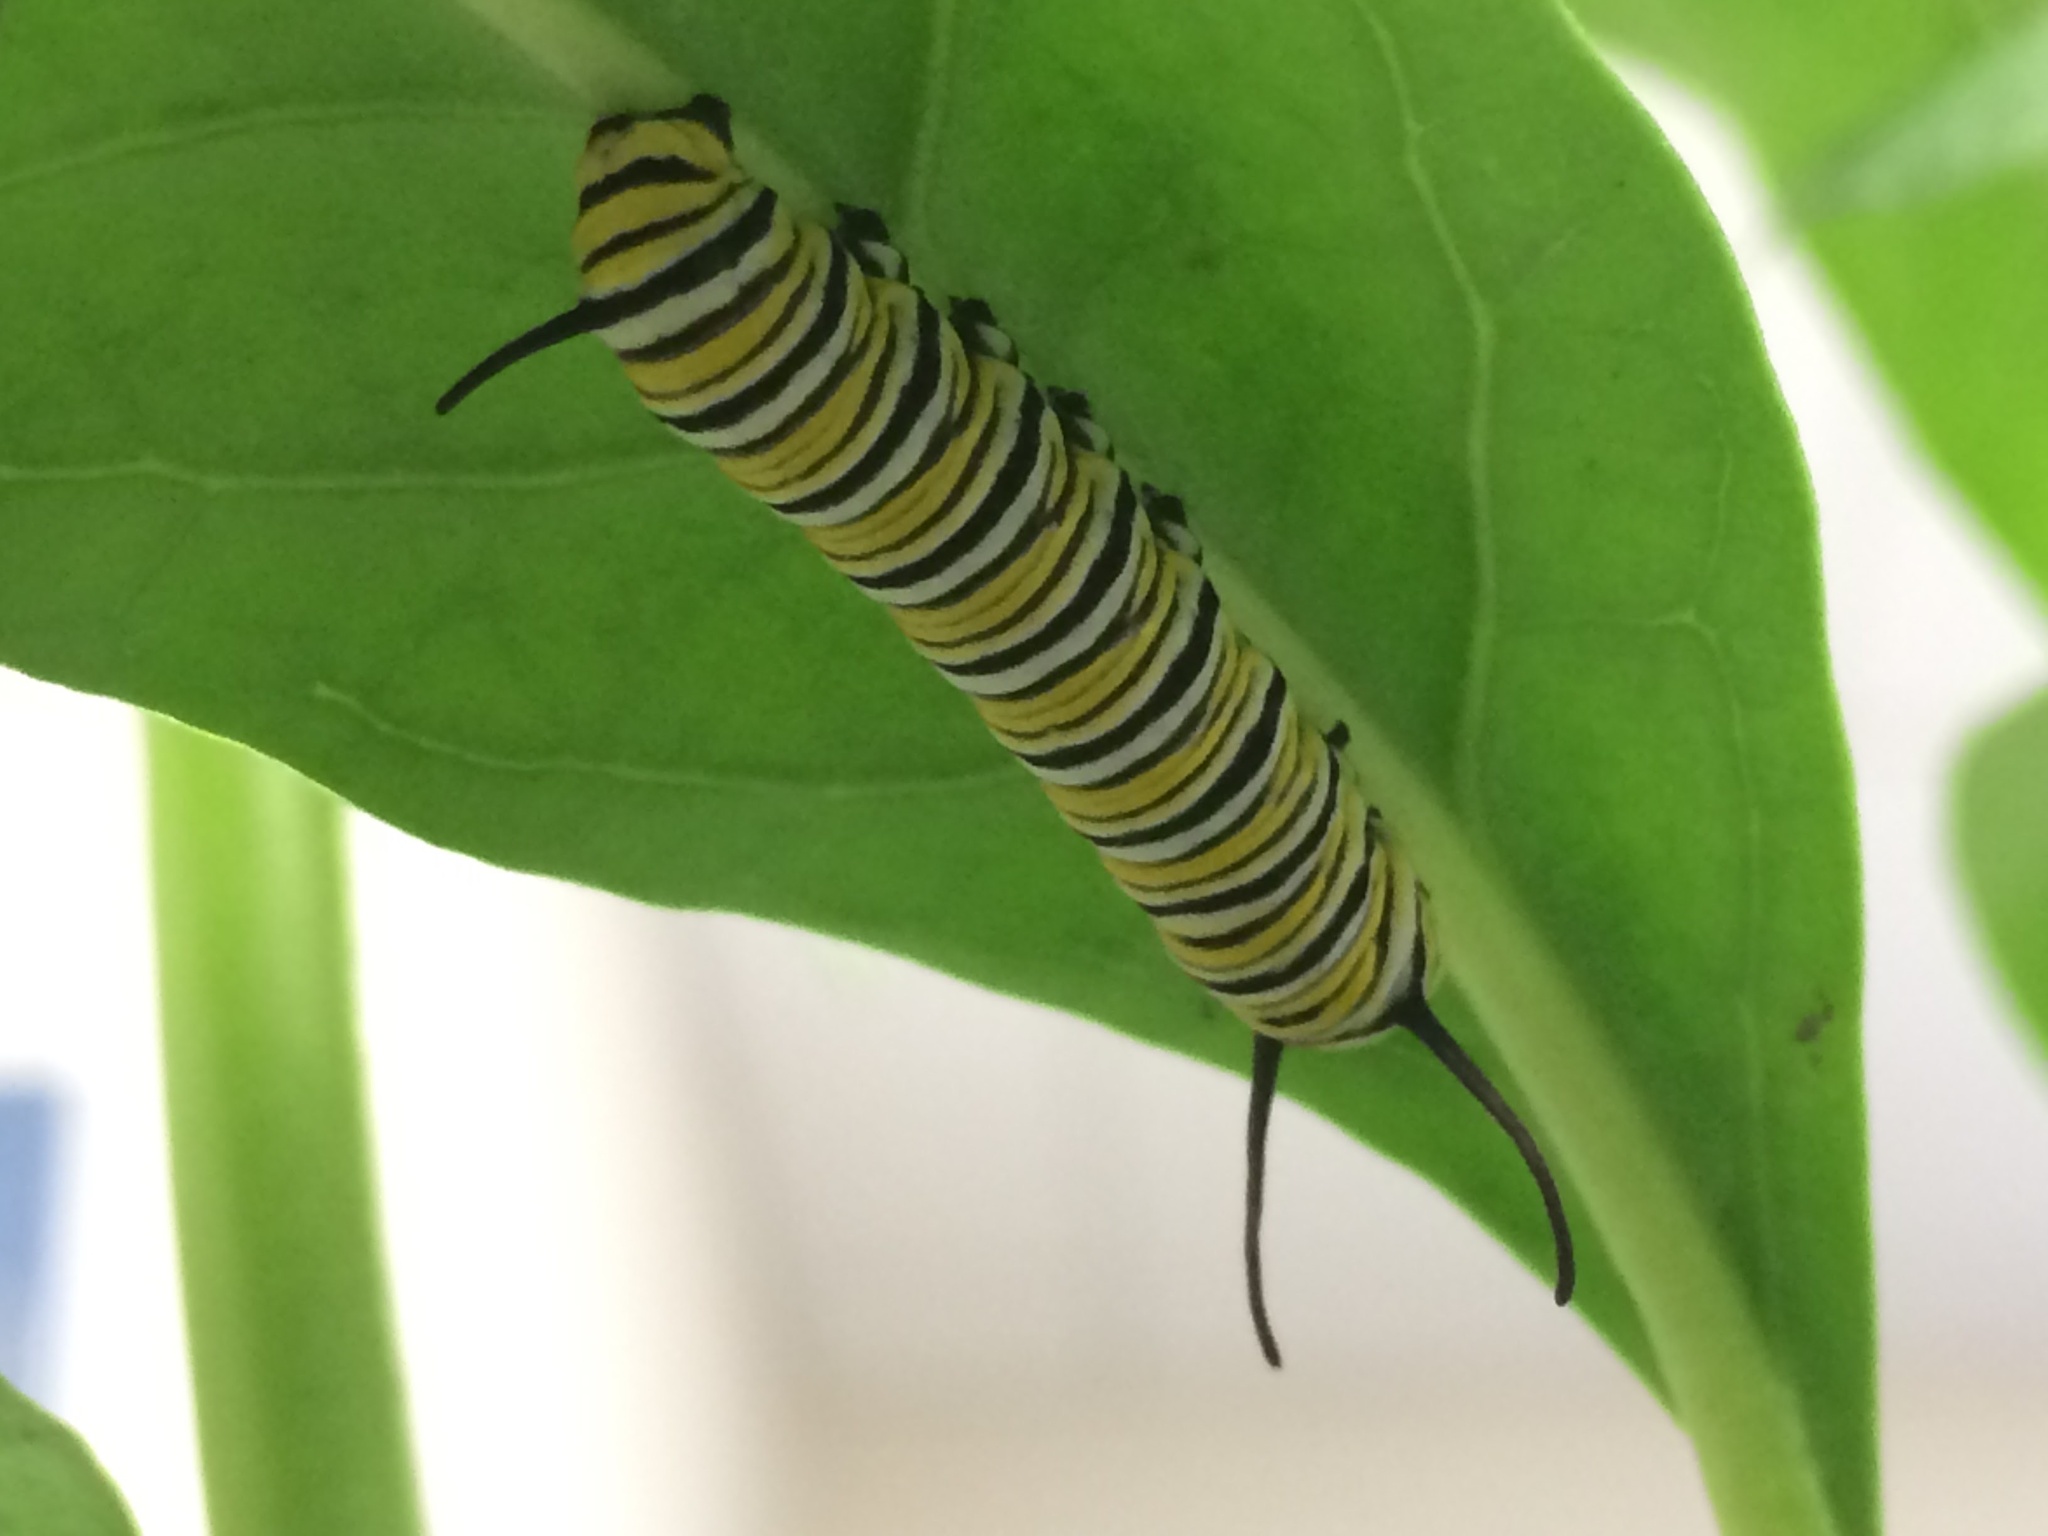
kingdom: Animalia
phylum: Arthropoda
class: Insecta
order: Lepidoptera
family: Nymphalidae
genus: Danaus
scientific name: Danaus plexippus
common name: Monarch
